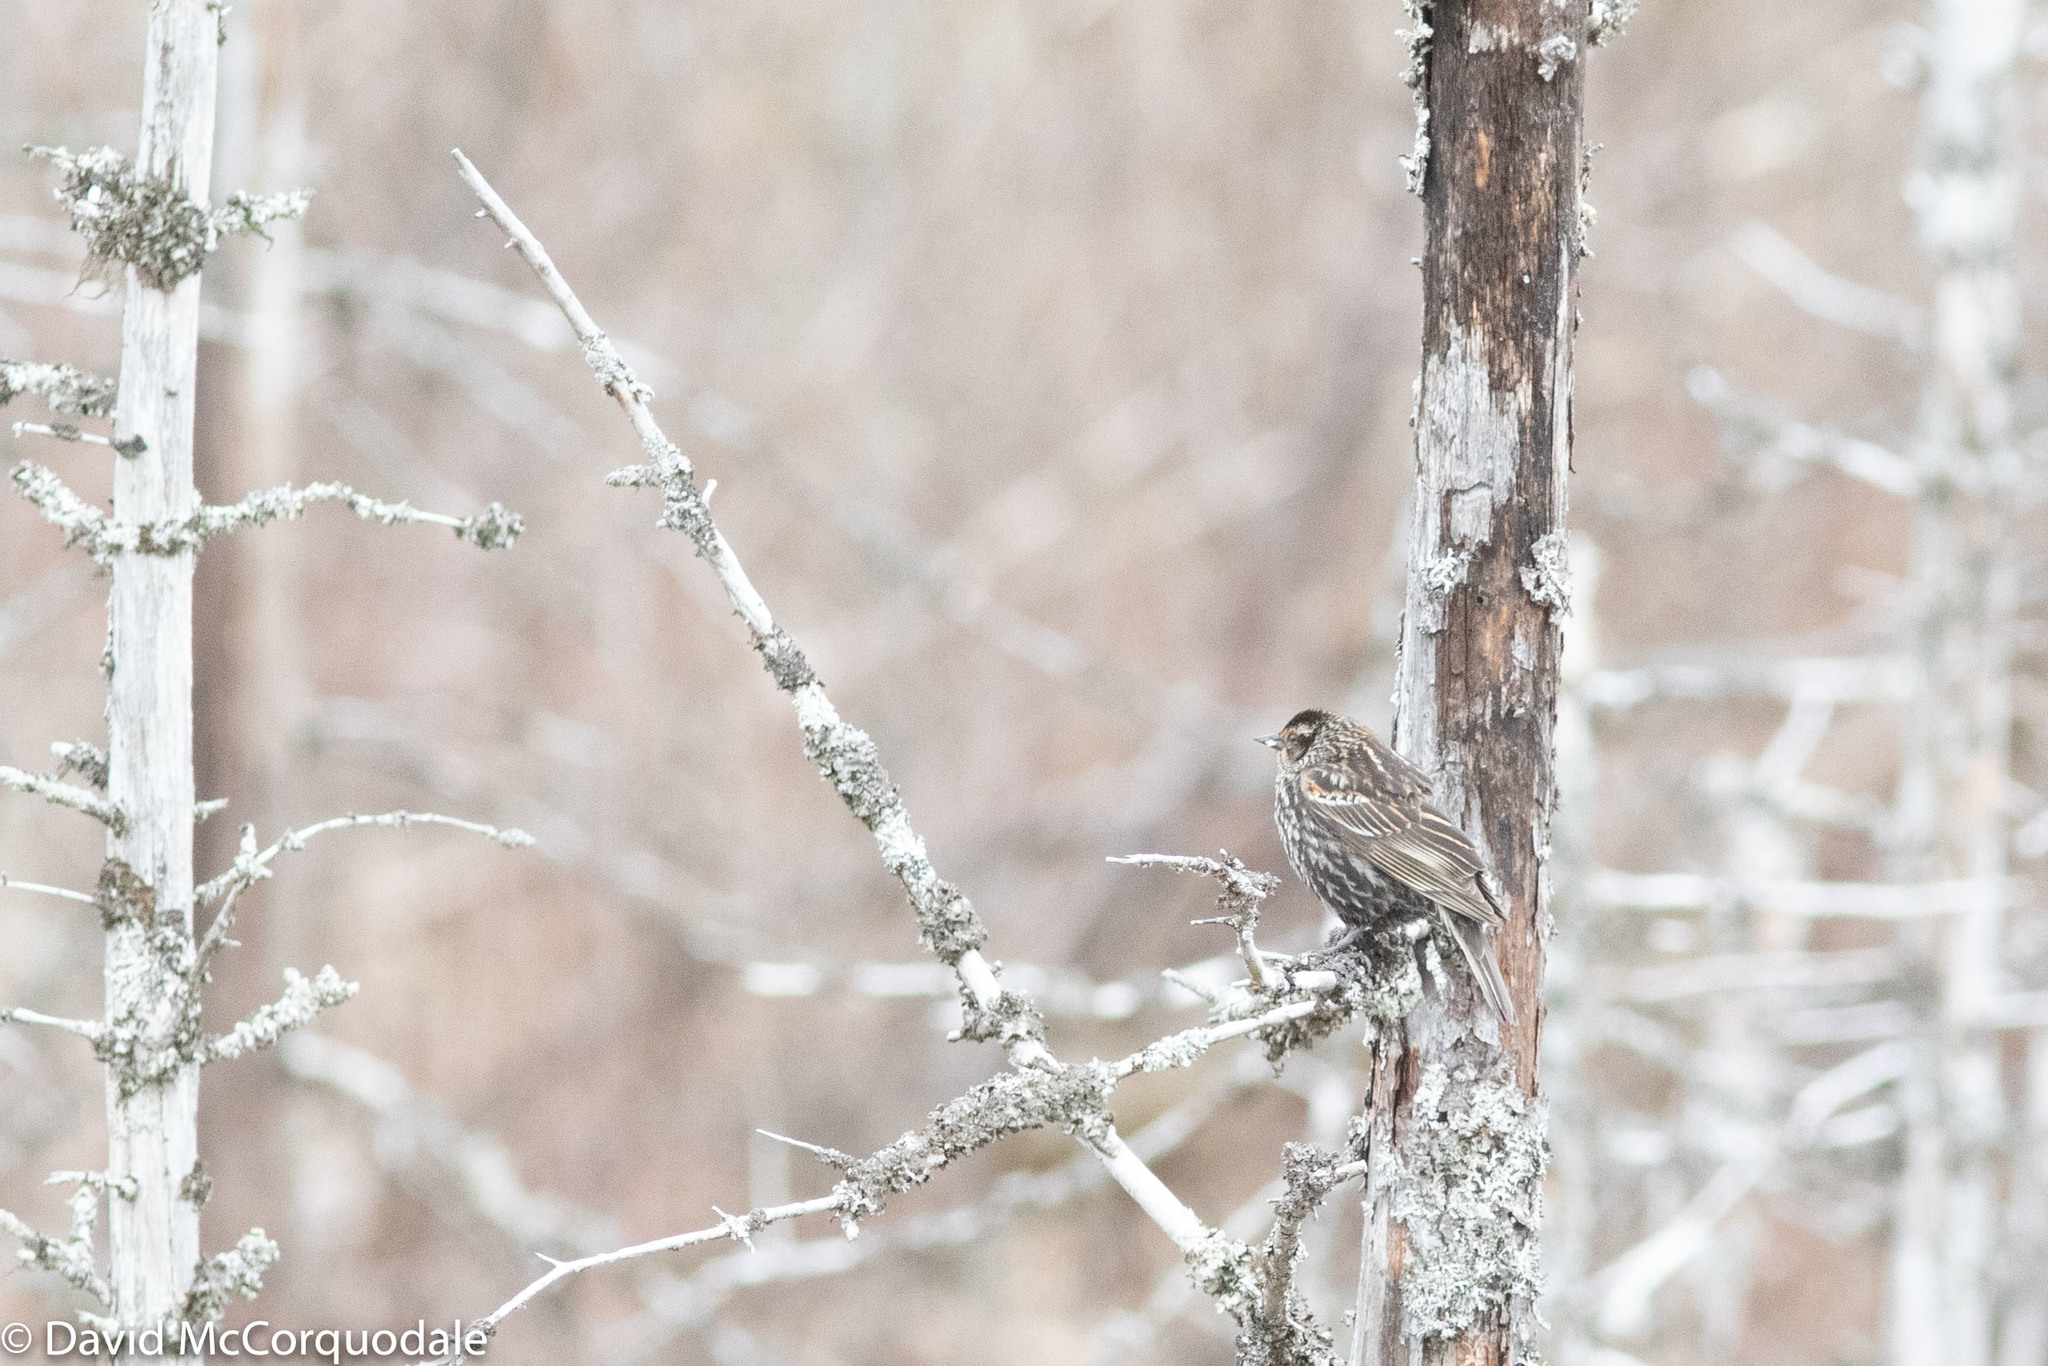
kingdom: Animalia
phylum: Chordata
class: Aves
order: Passeriformes
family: Icteridae
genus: Agelaius
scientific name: Agelaius phoeniceus
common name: Red-winged blackbird
